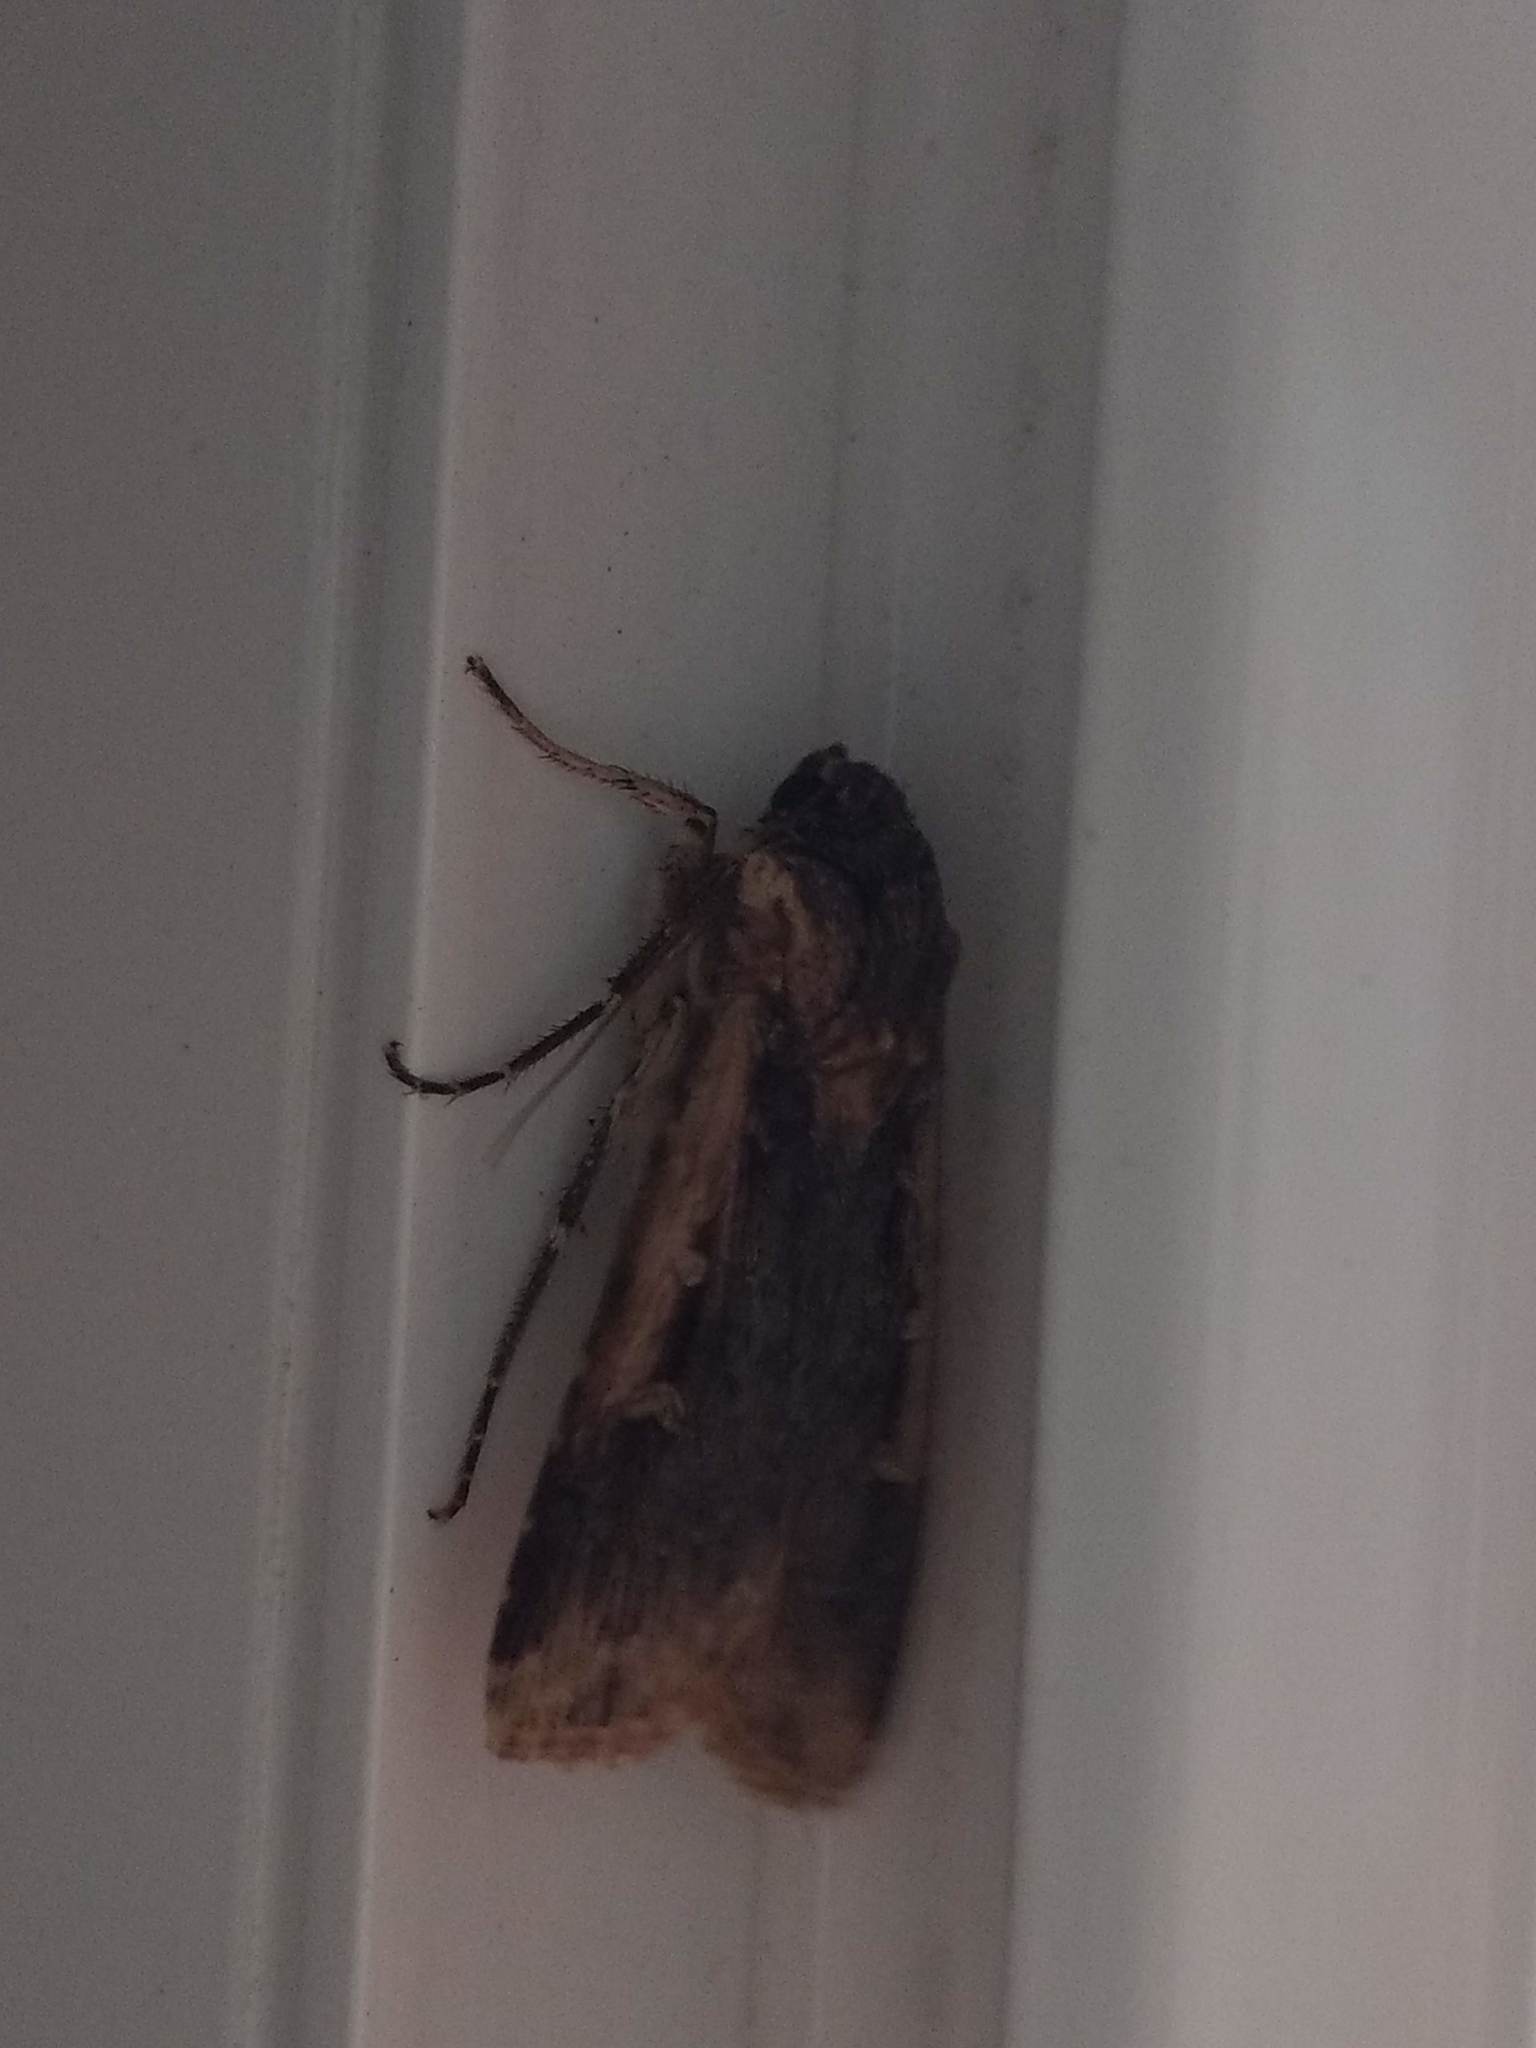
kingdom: Animalia
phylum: Arthropoda
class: Insecta
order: Lepidoptera
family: Noctuidae
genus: Feltia
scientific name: Feltia subterranea
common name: Granulate cutworm
